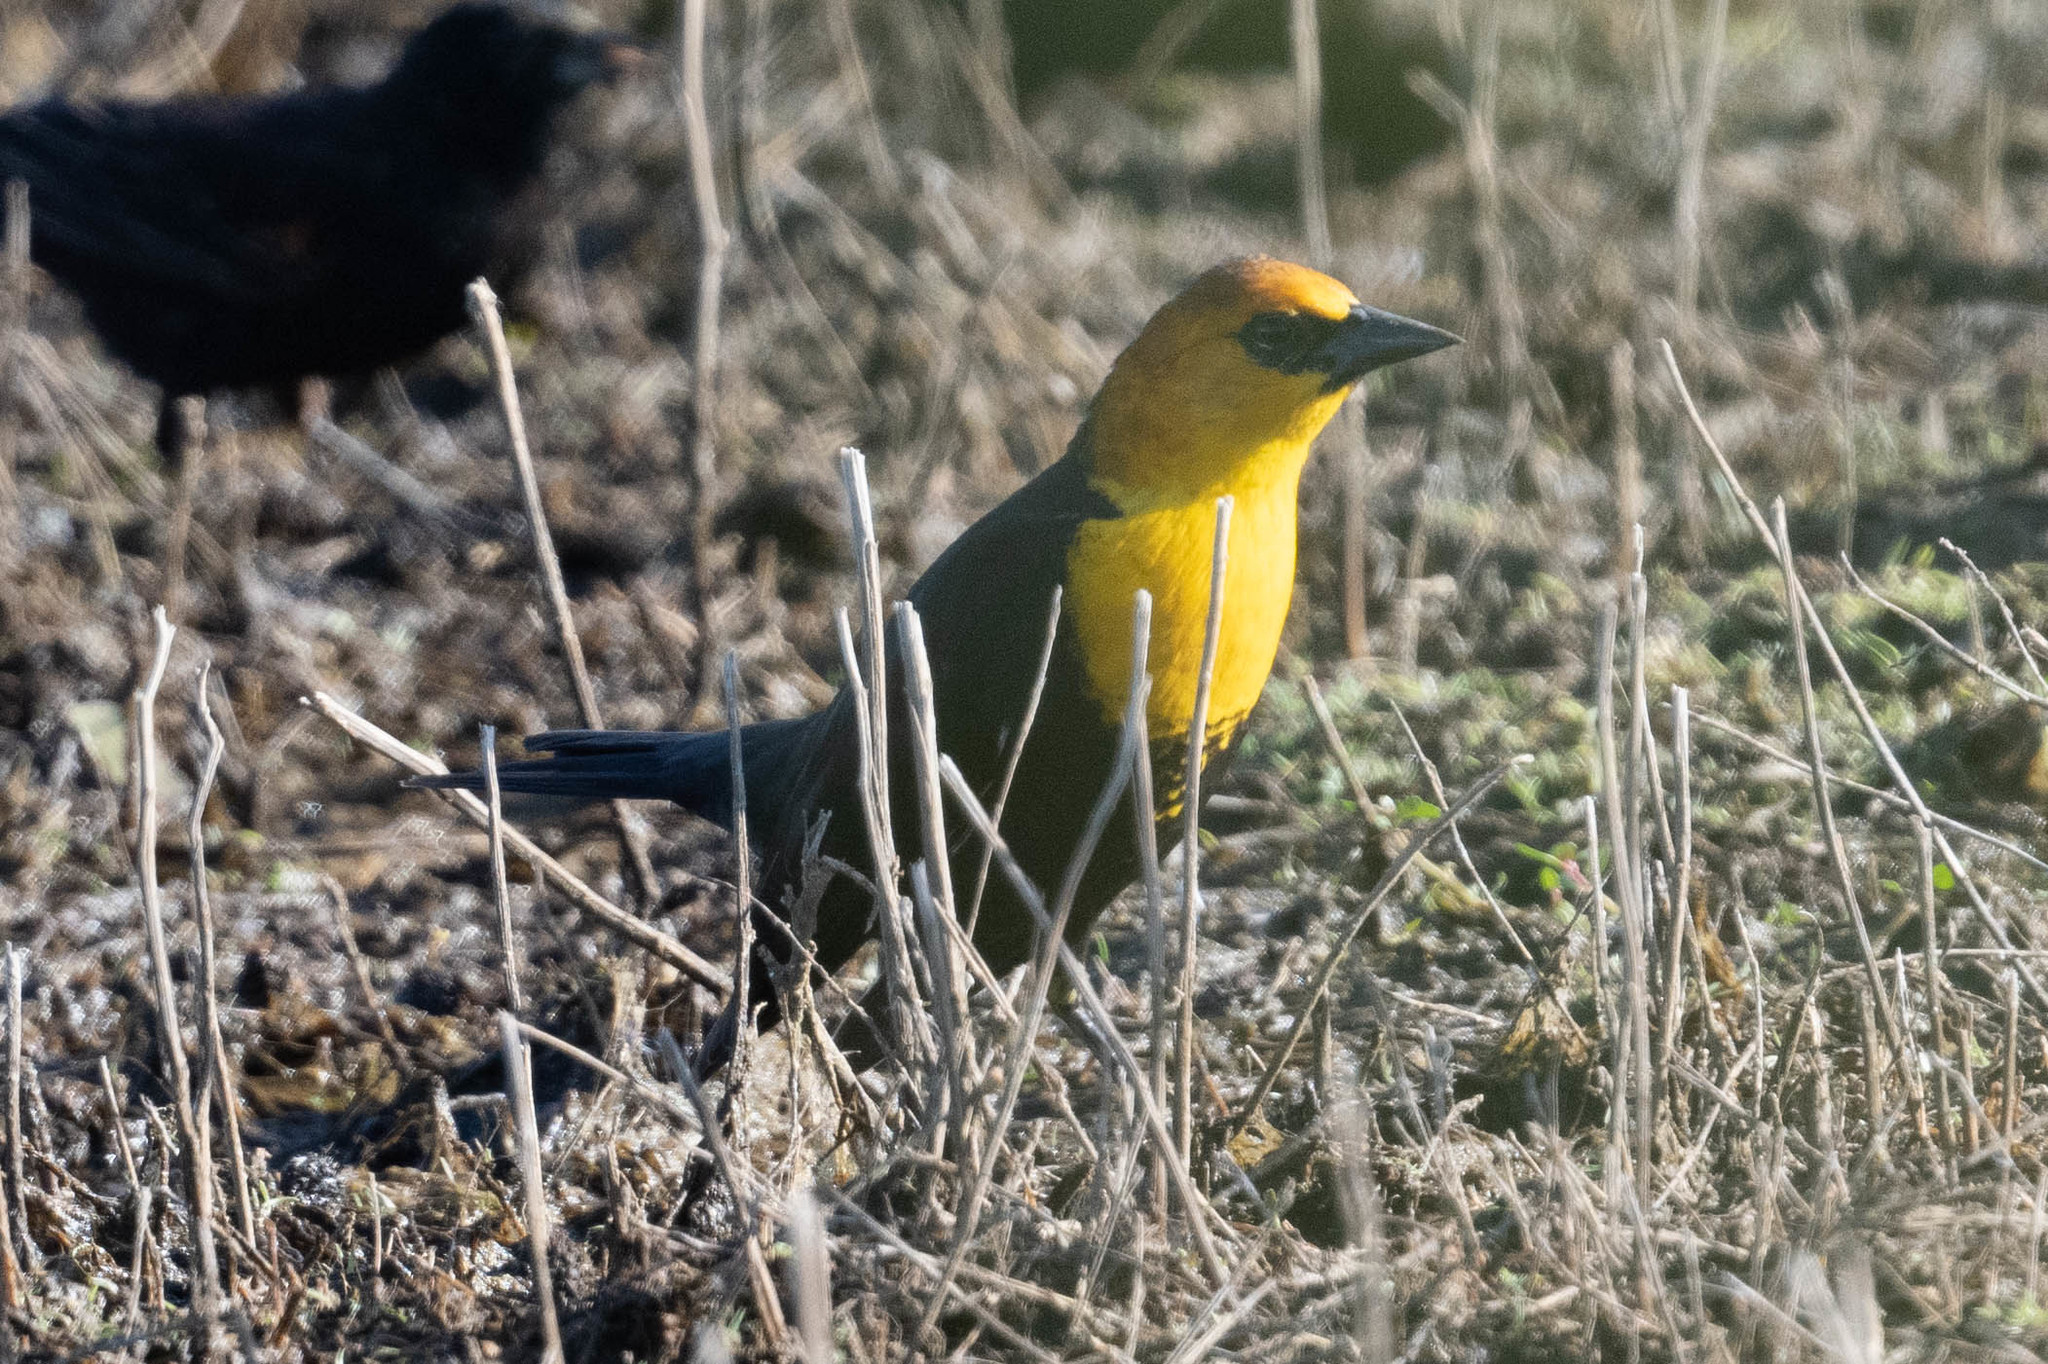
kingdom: Animalia
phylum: Chordata
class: Aves
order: Passeriformes
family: Icteridae
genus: Xanthocephalus
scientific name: Xanthocephalus xanthocephalus
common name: Yellow-headed blackbird
